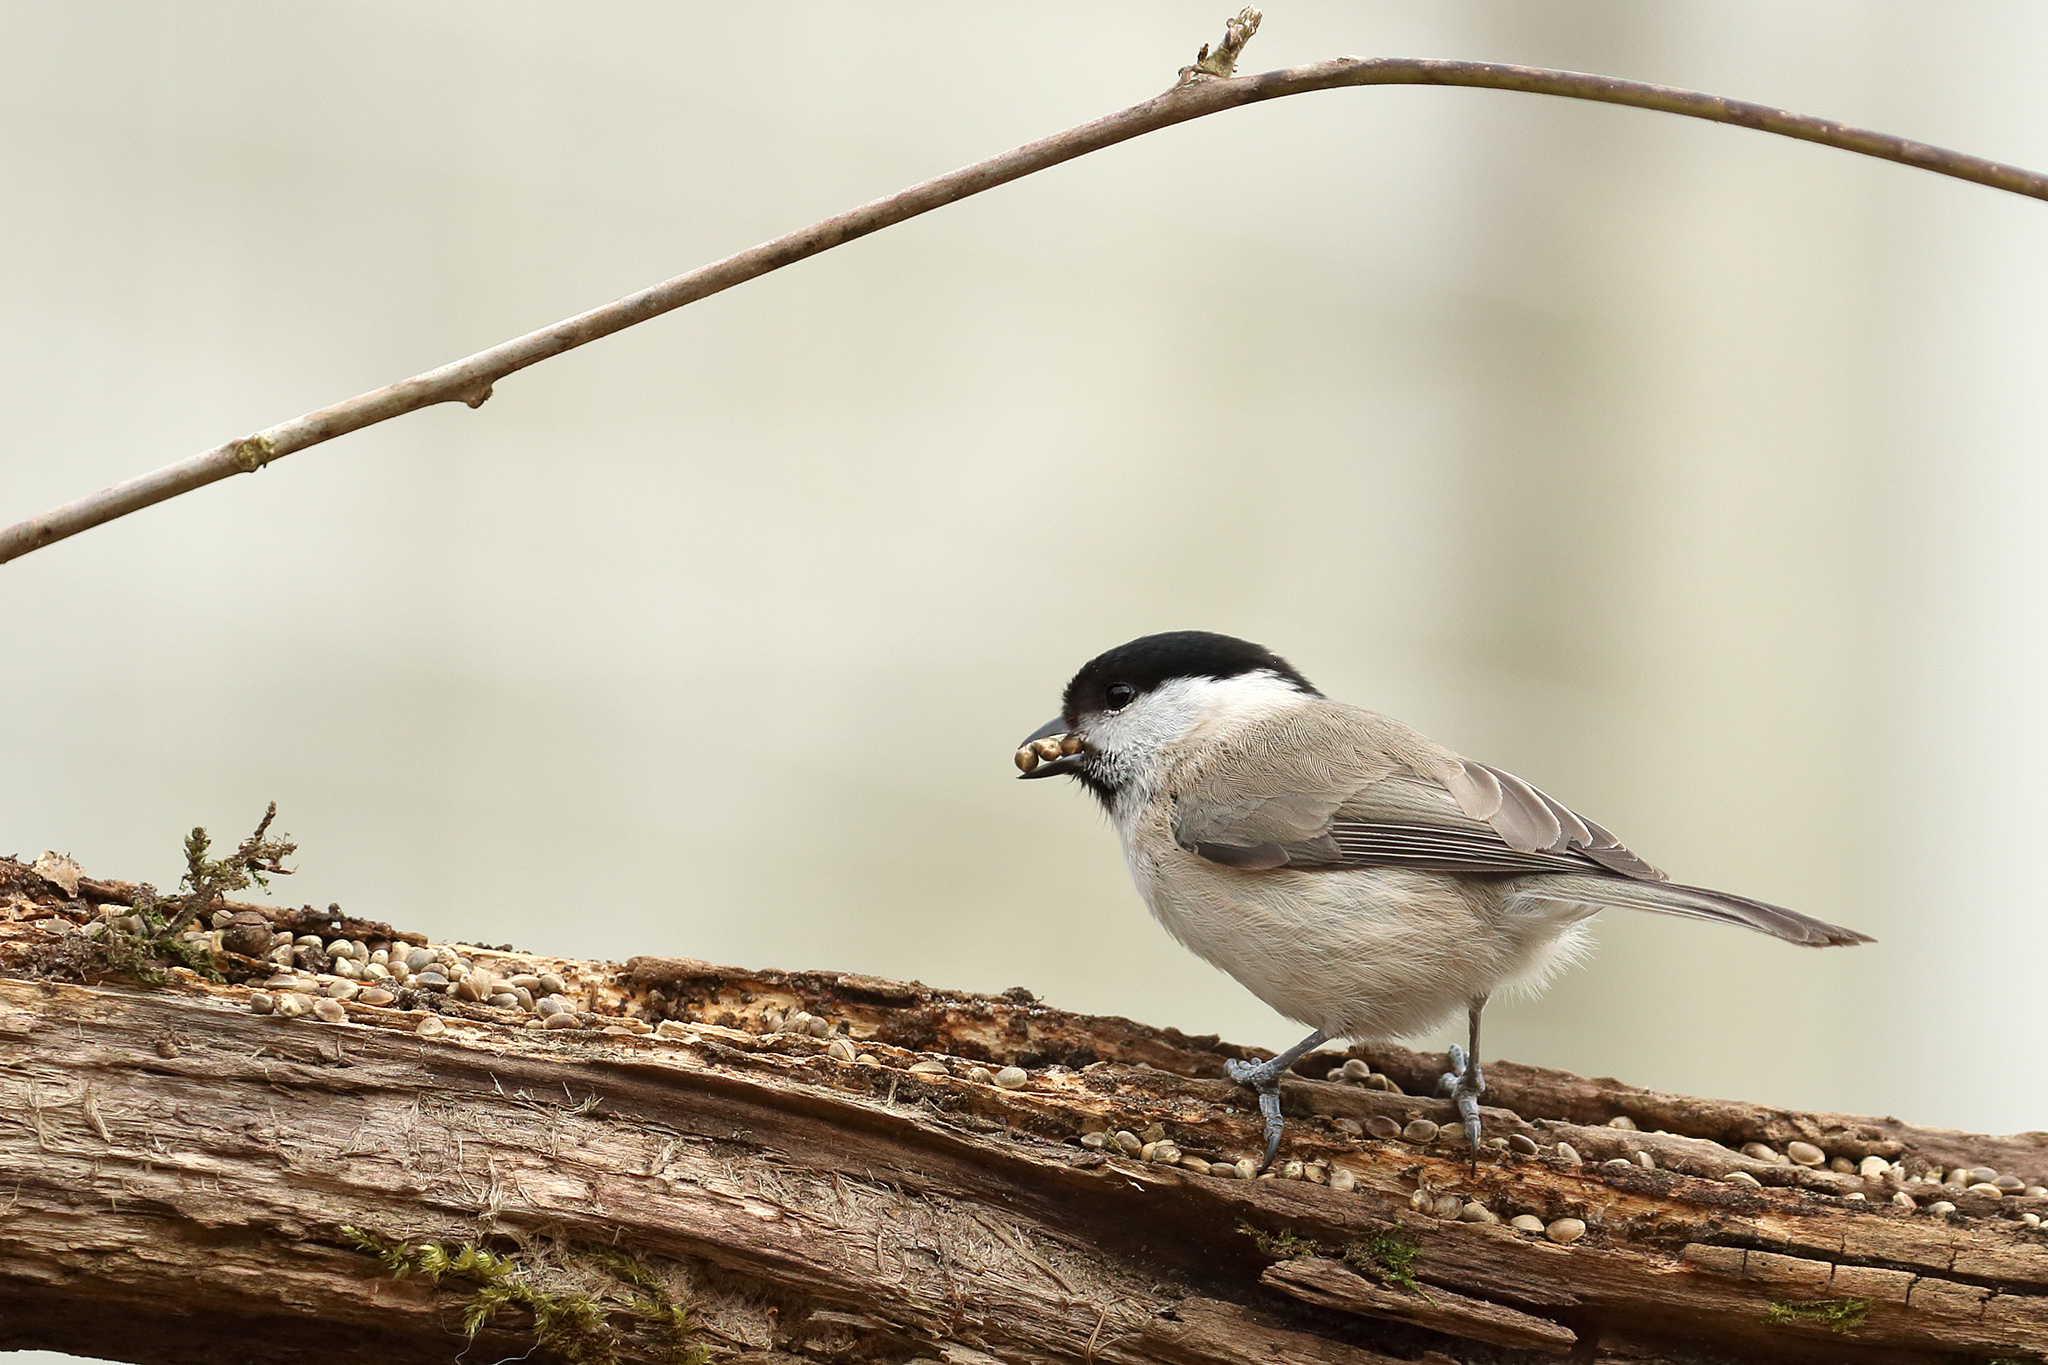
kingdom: Animalia
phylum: Chordata
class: Aves
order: Passeriformes
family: Paridae
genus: Poecile
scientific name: Poecile palustris
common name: Marsh tit
